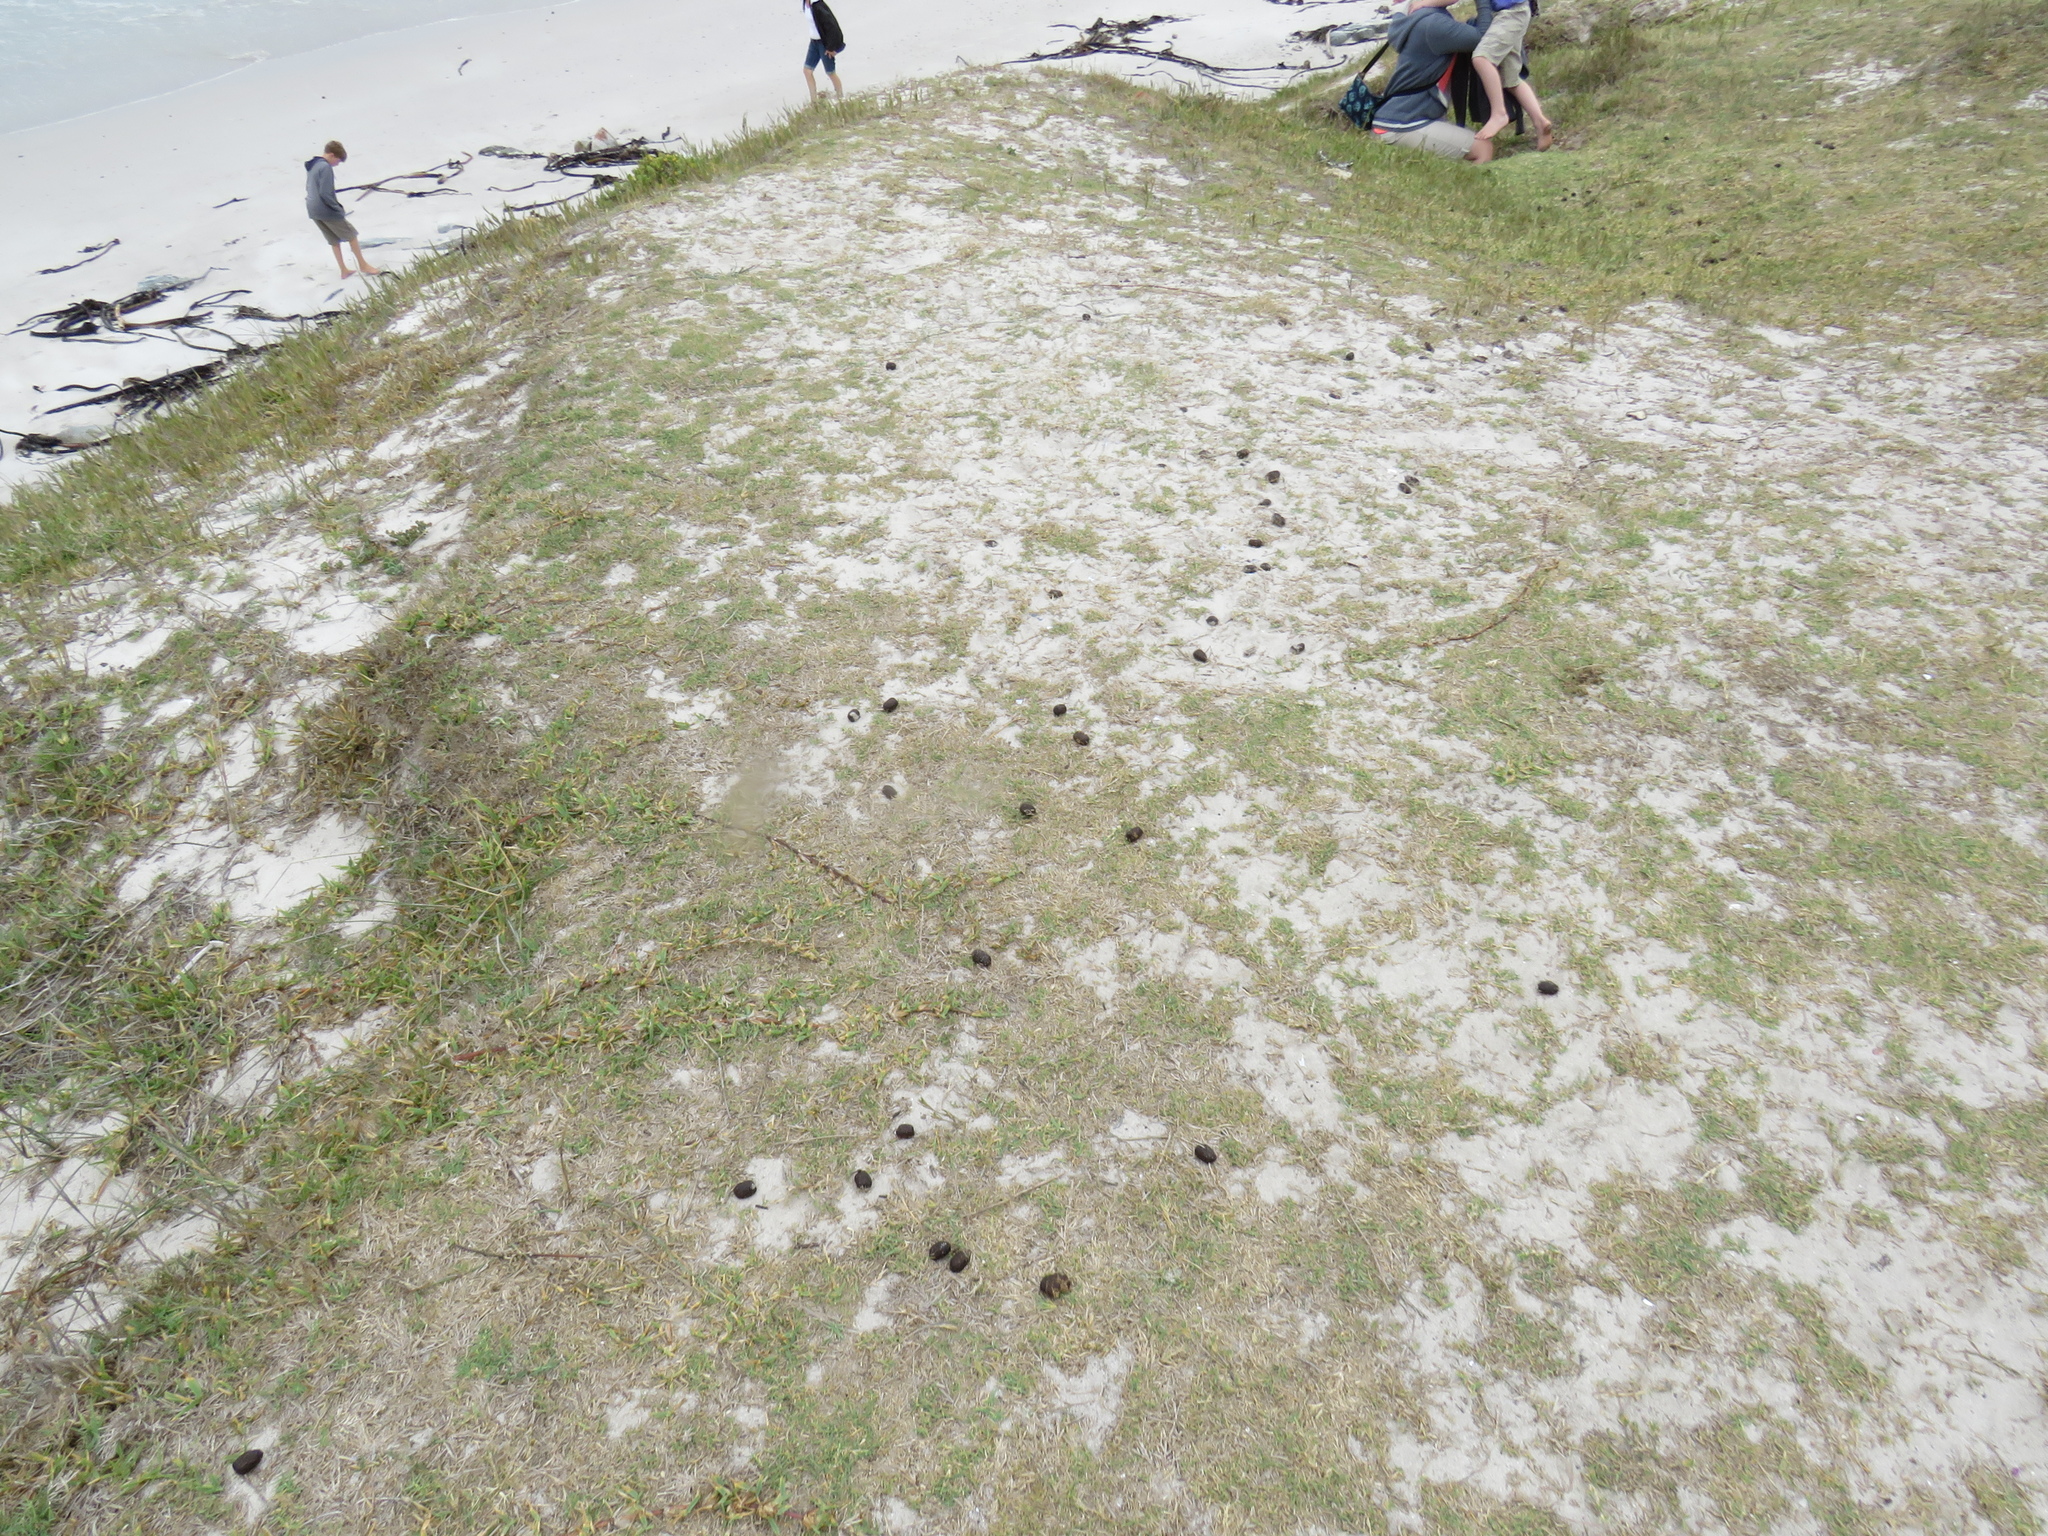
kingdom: Animalia
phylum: Chordata
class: Mammalia
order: Artiodactyla
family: Bovidae
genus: Taurotragus
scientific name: Taurotragus oryx
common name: Common eland
